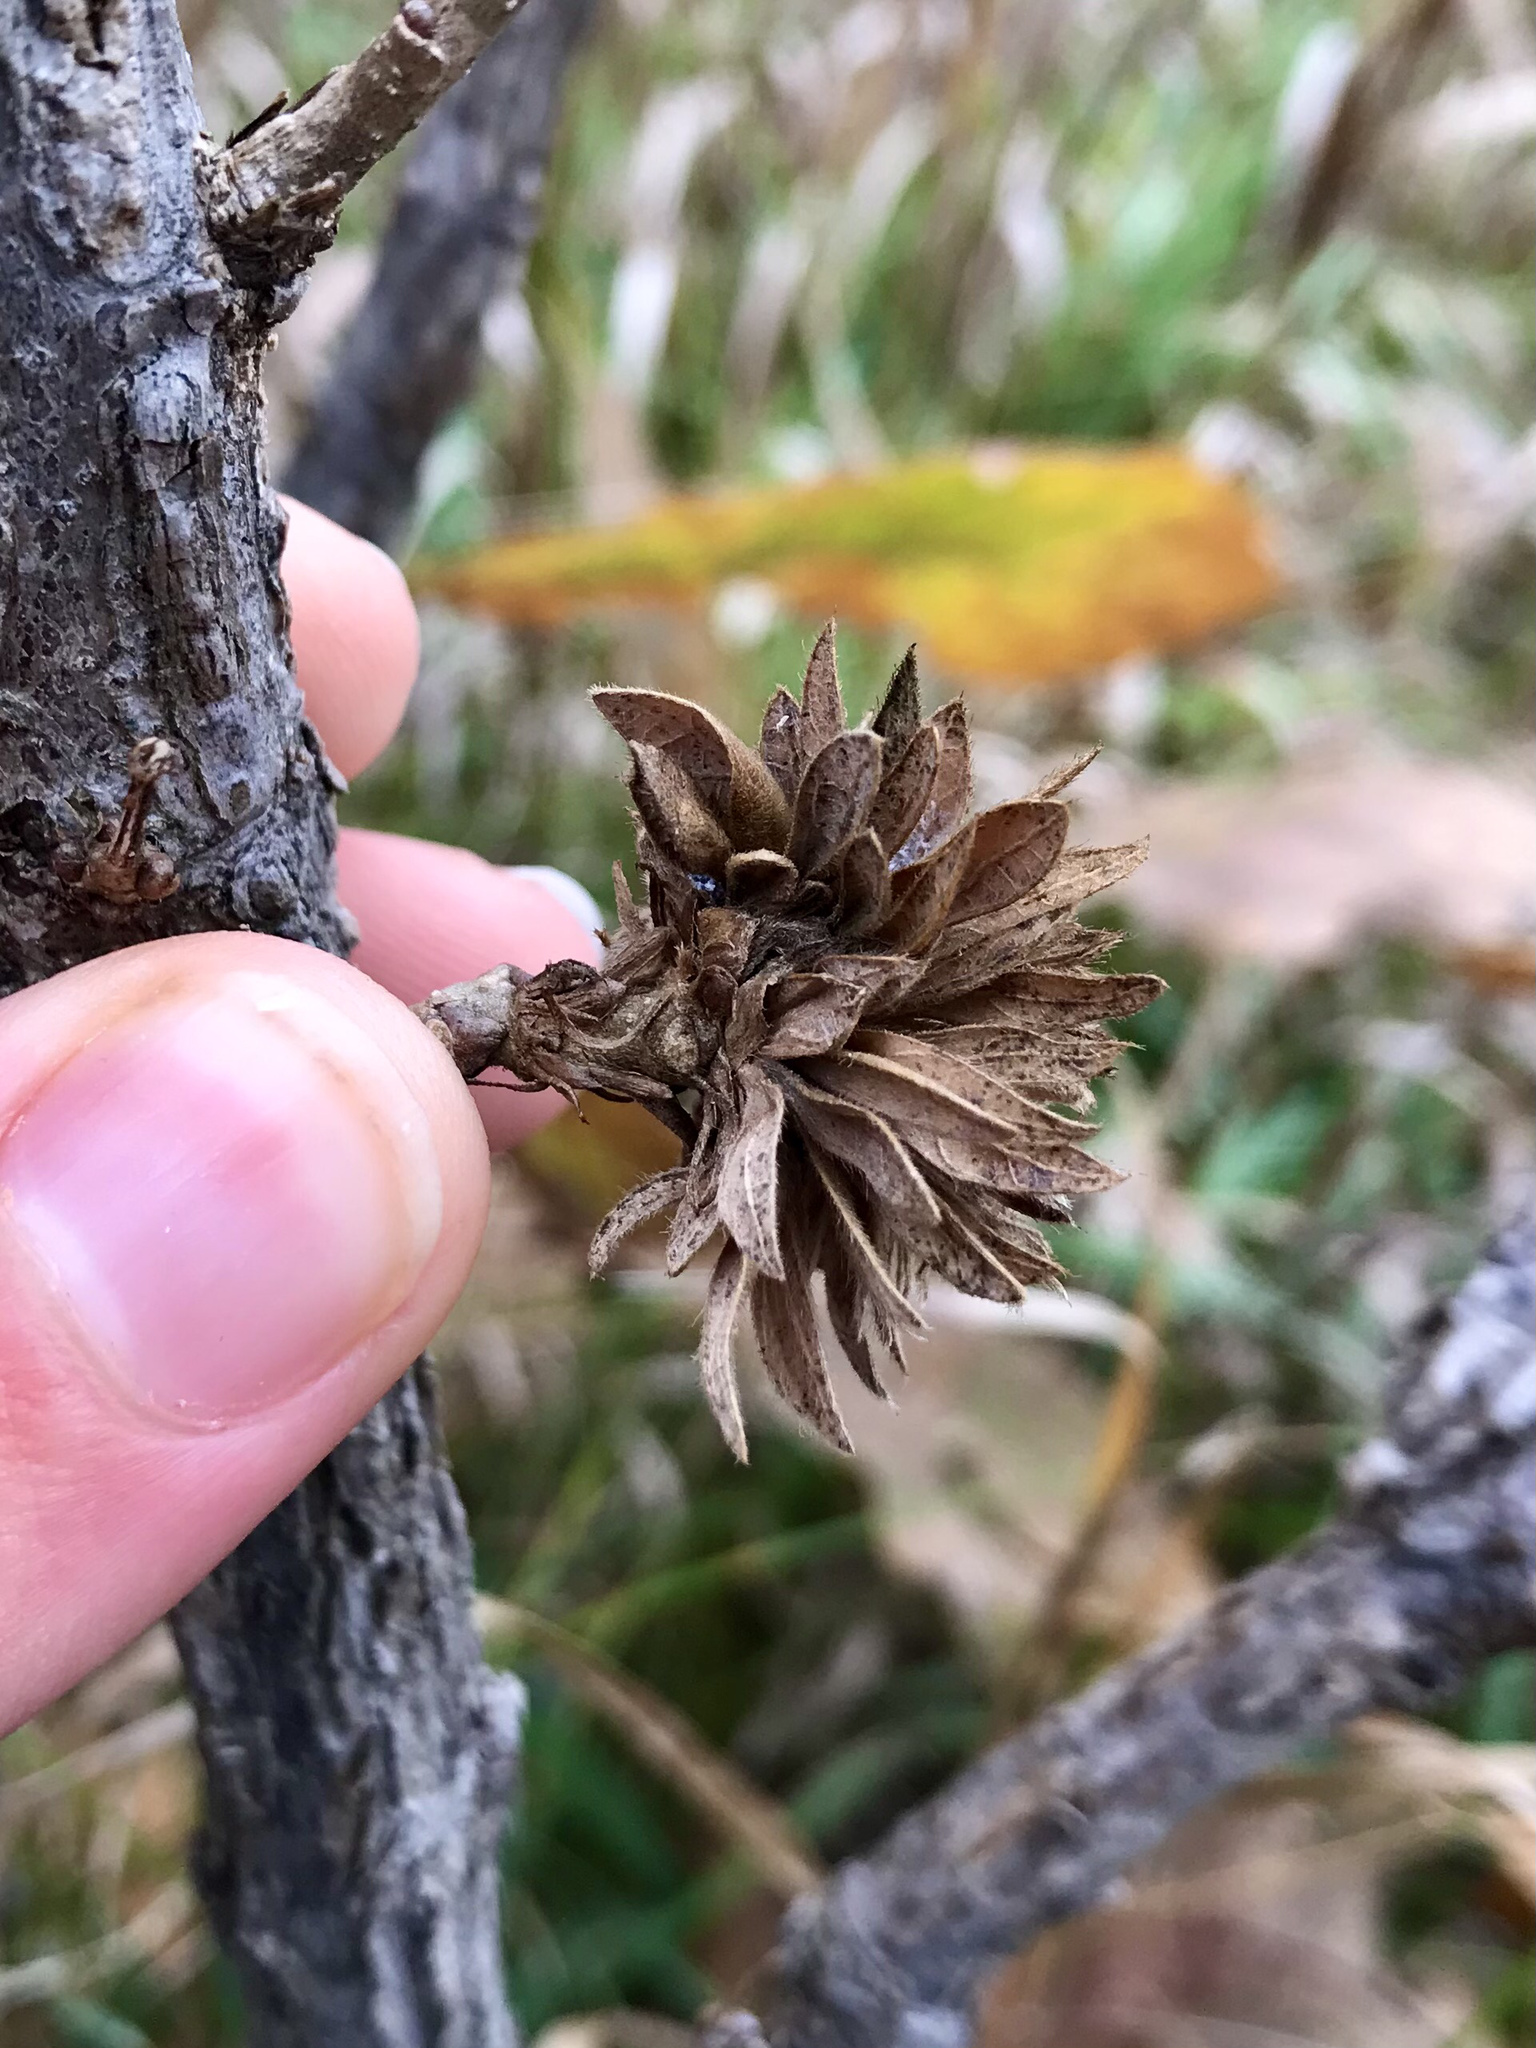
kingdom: Animalia
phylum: Arthropoda
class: Insecta
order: Hymenoptera
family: Cynipidae
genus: Andricus
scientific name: Andricus
